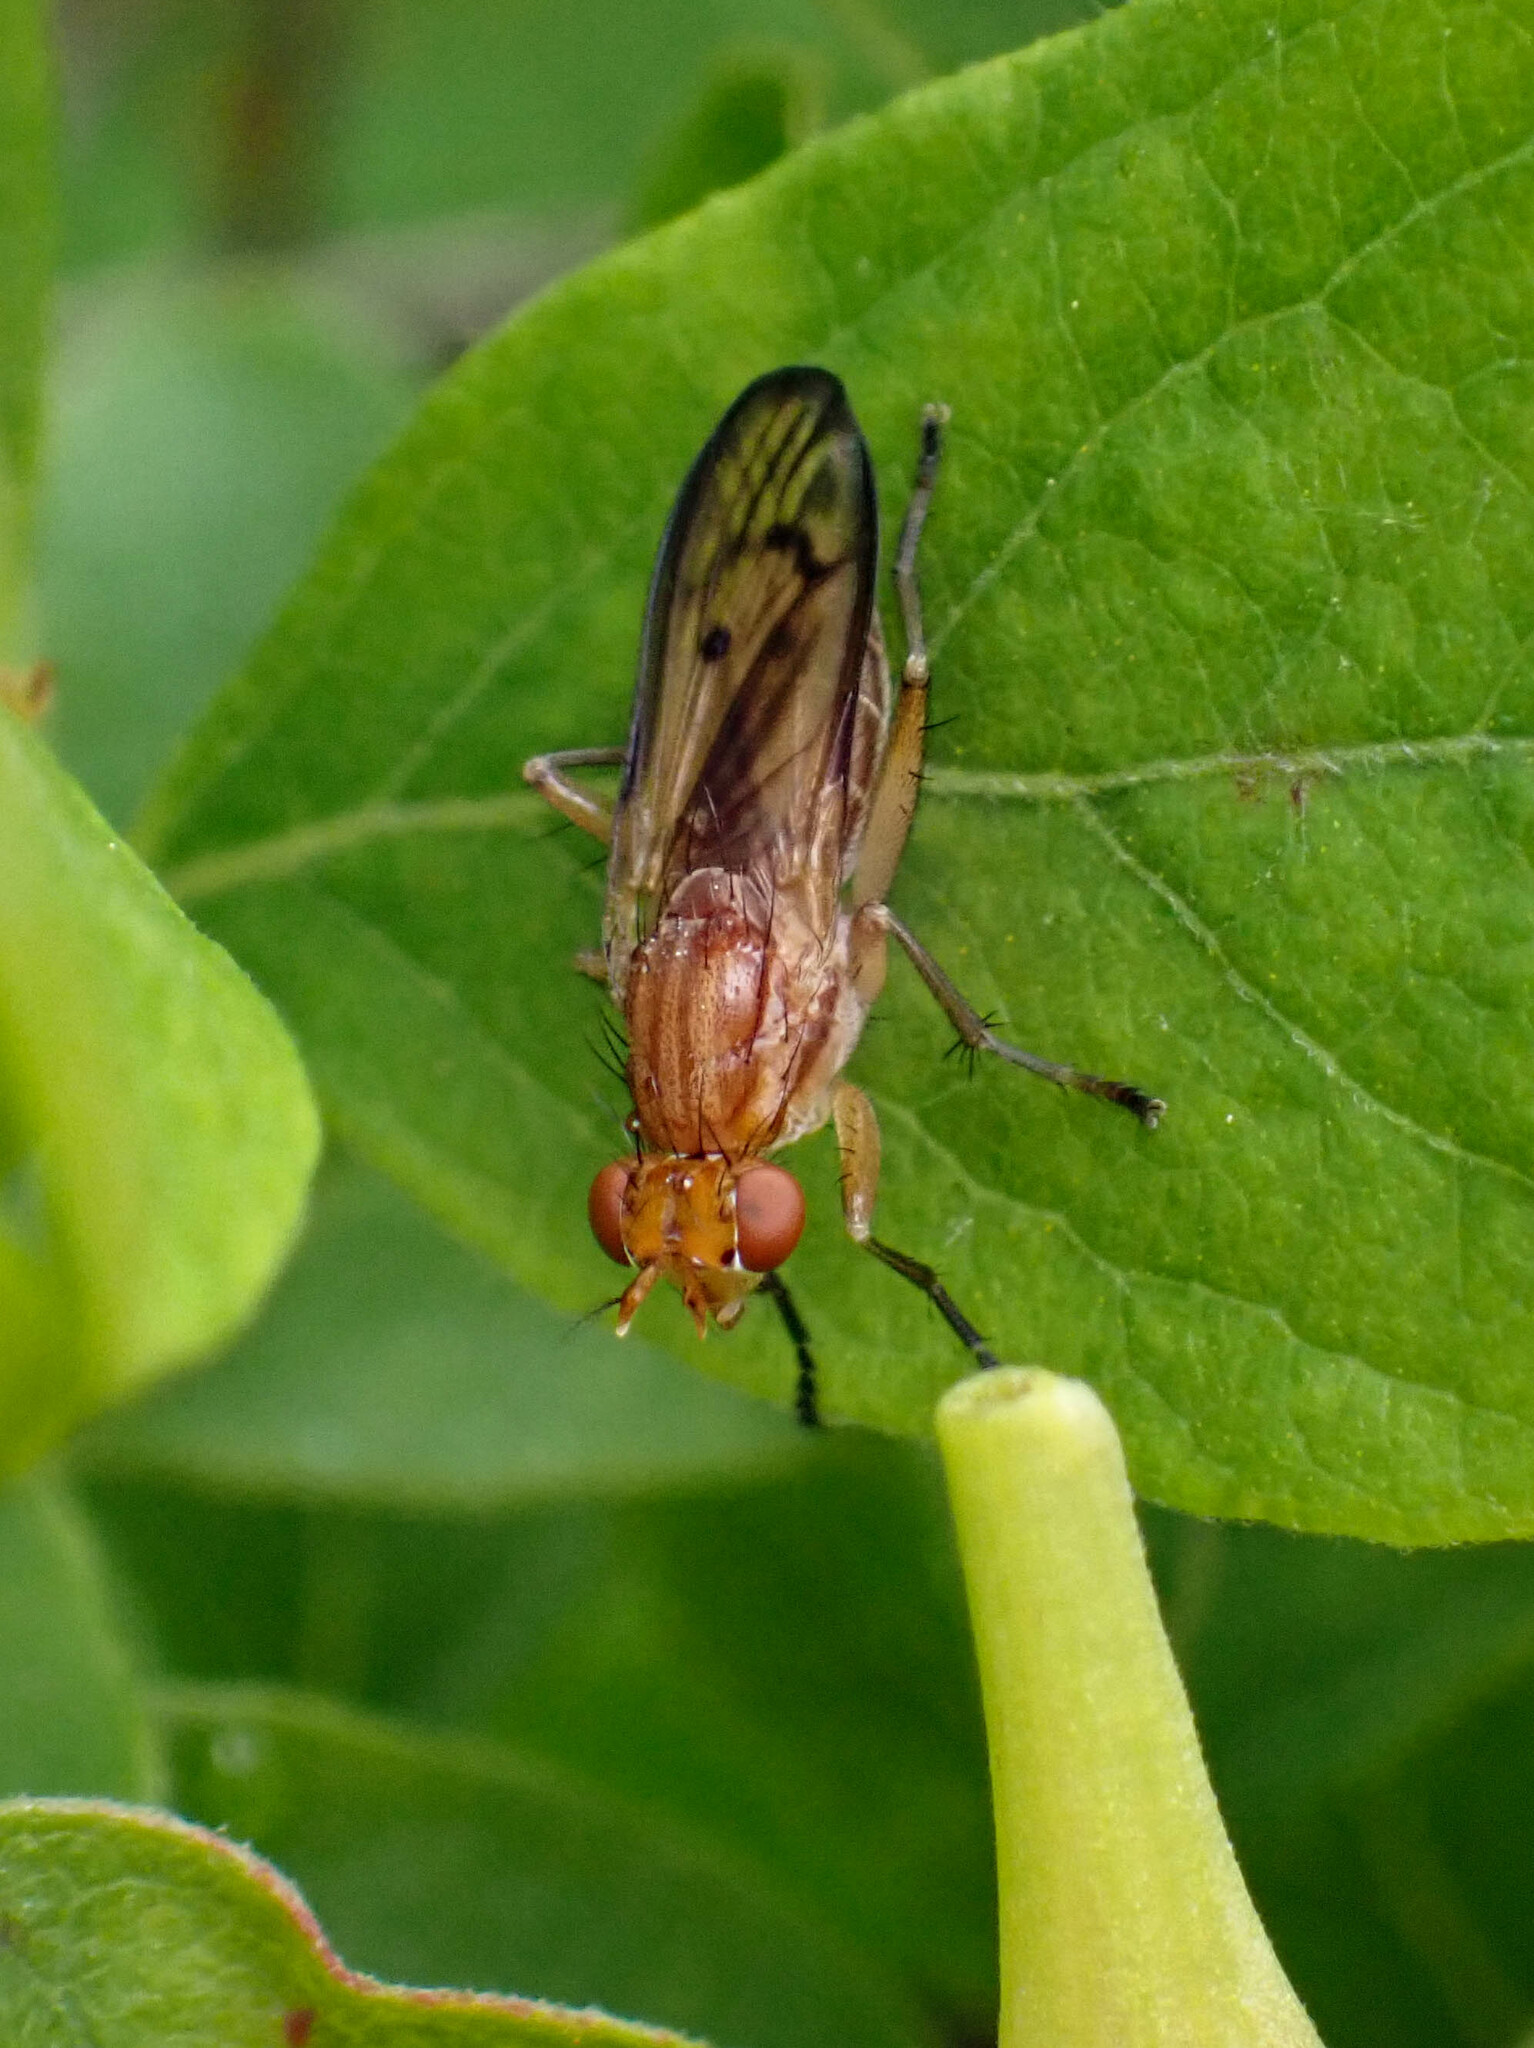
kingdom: Animalia
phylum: Arthropoda
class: Insecta
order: Diptera
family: Sciomyzidae
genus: Tetanocera
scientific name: Tetanocera plebeja
